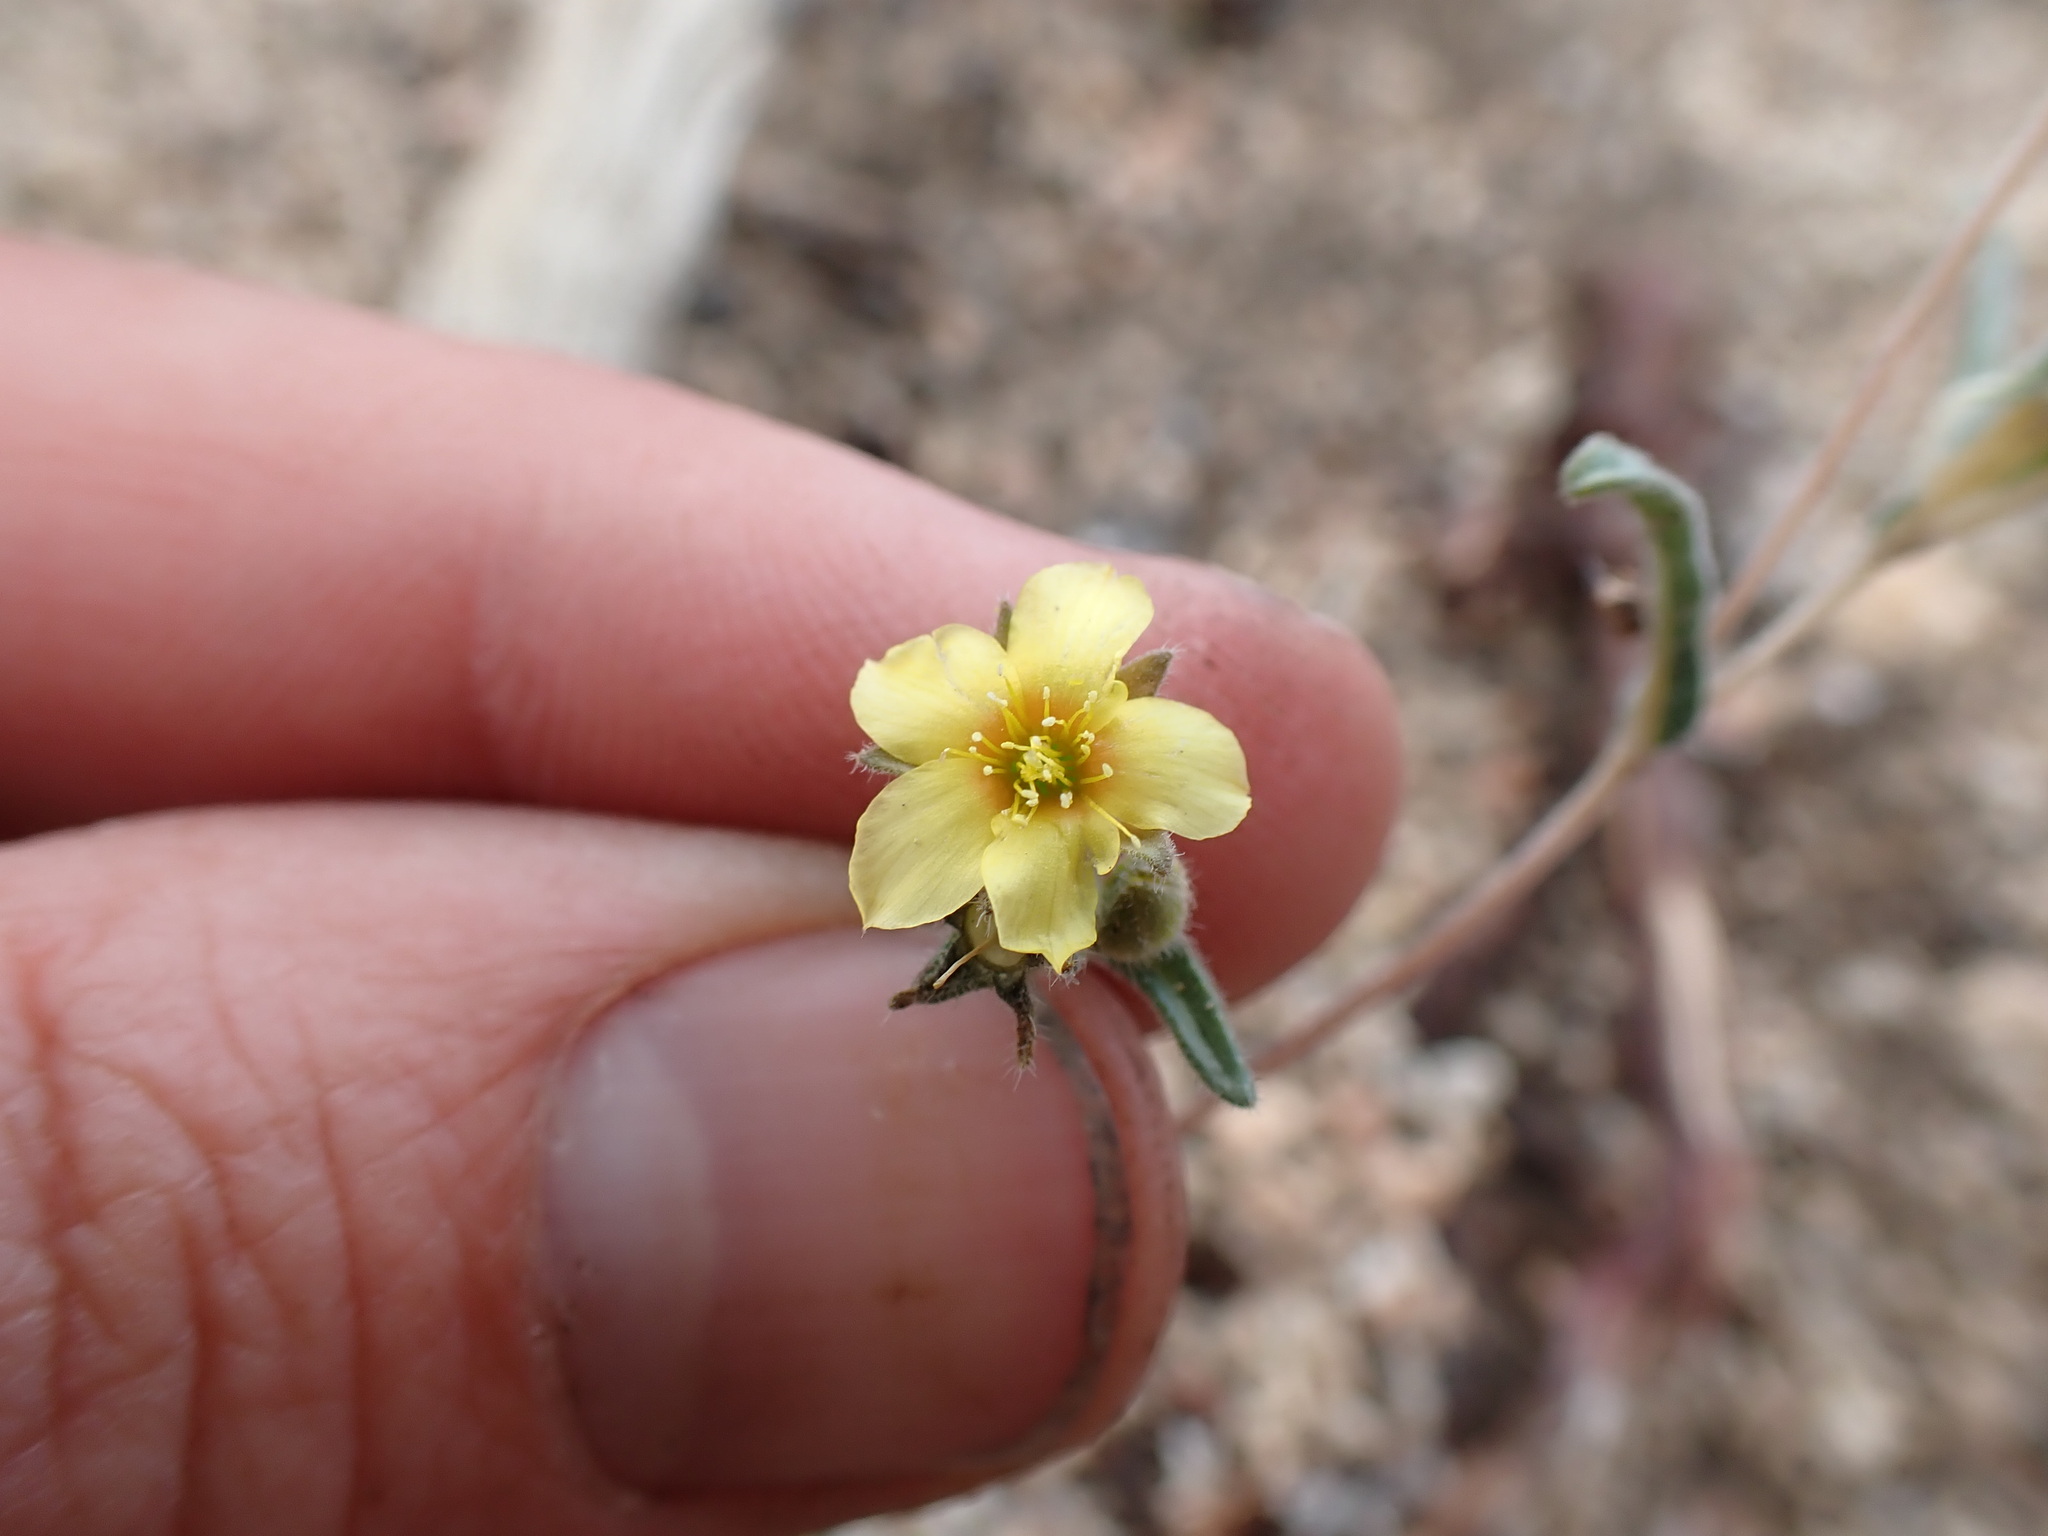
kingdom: Plantae
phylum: Tracheophyta
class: Magnoliopsida
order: Cornales
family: Loasaceae
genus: Mentzelia
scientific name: Mentzelia montana
